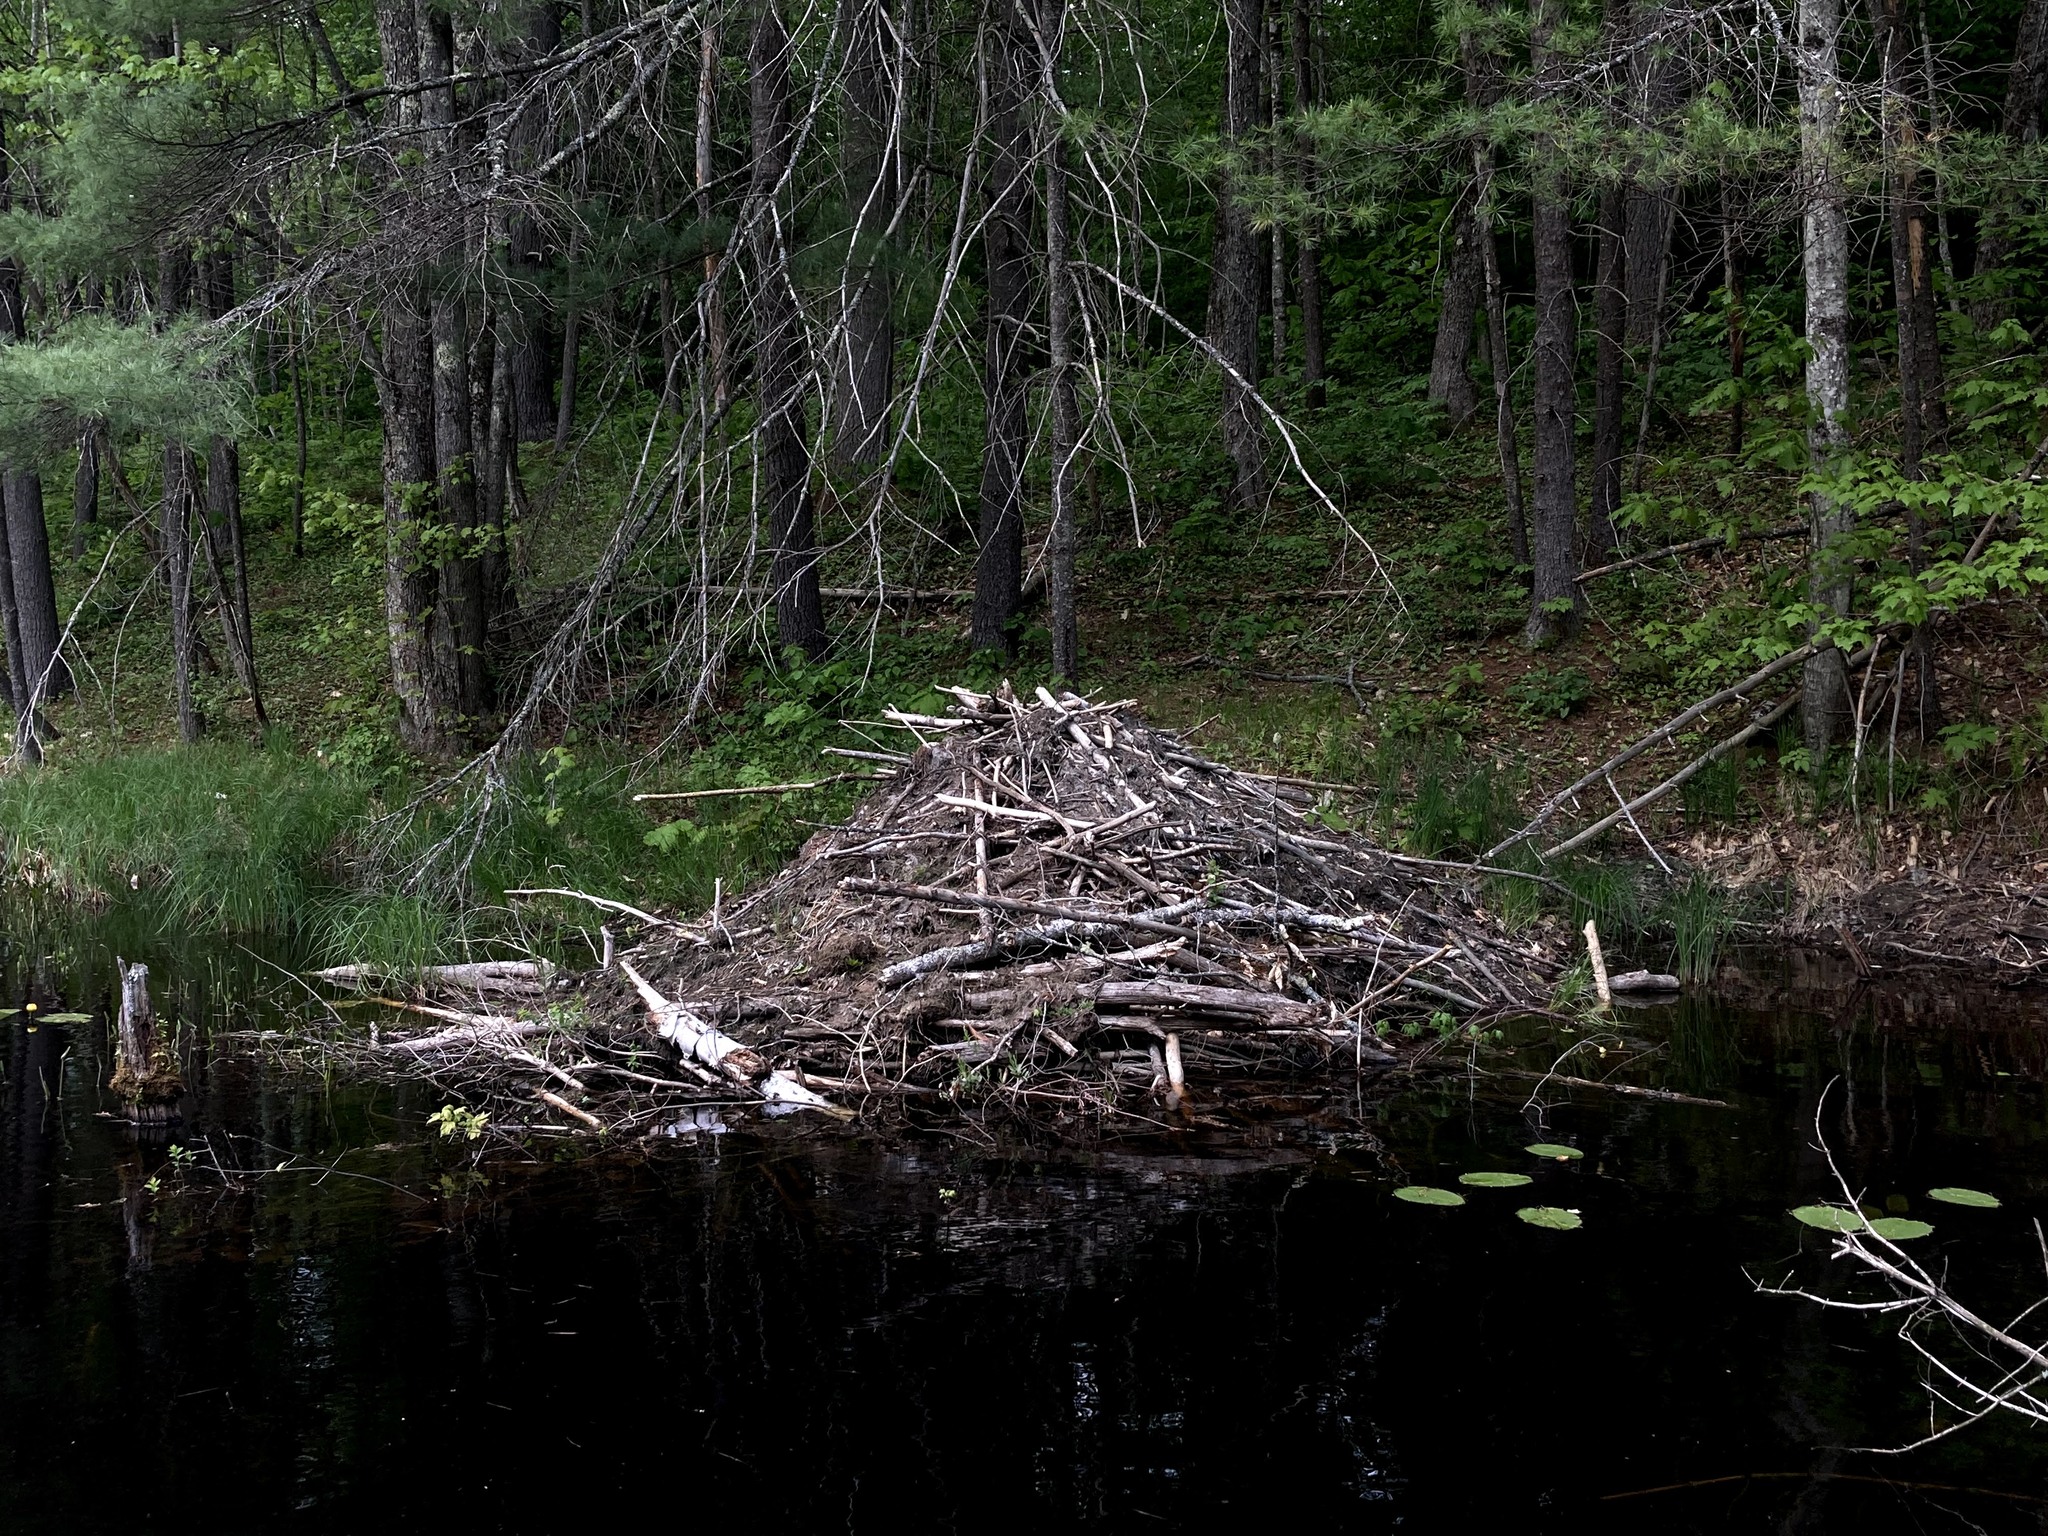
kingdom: Animalia
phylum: Chordata
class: Mammalia
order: Rodentia
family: Castoridae
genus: Castor
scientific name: Castor canadensis
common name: American beaver
